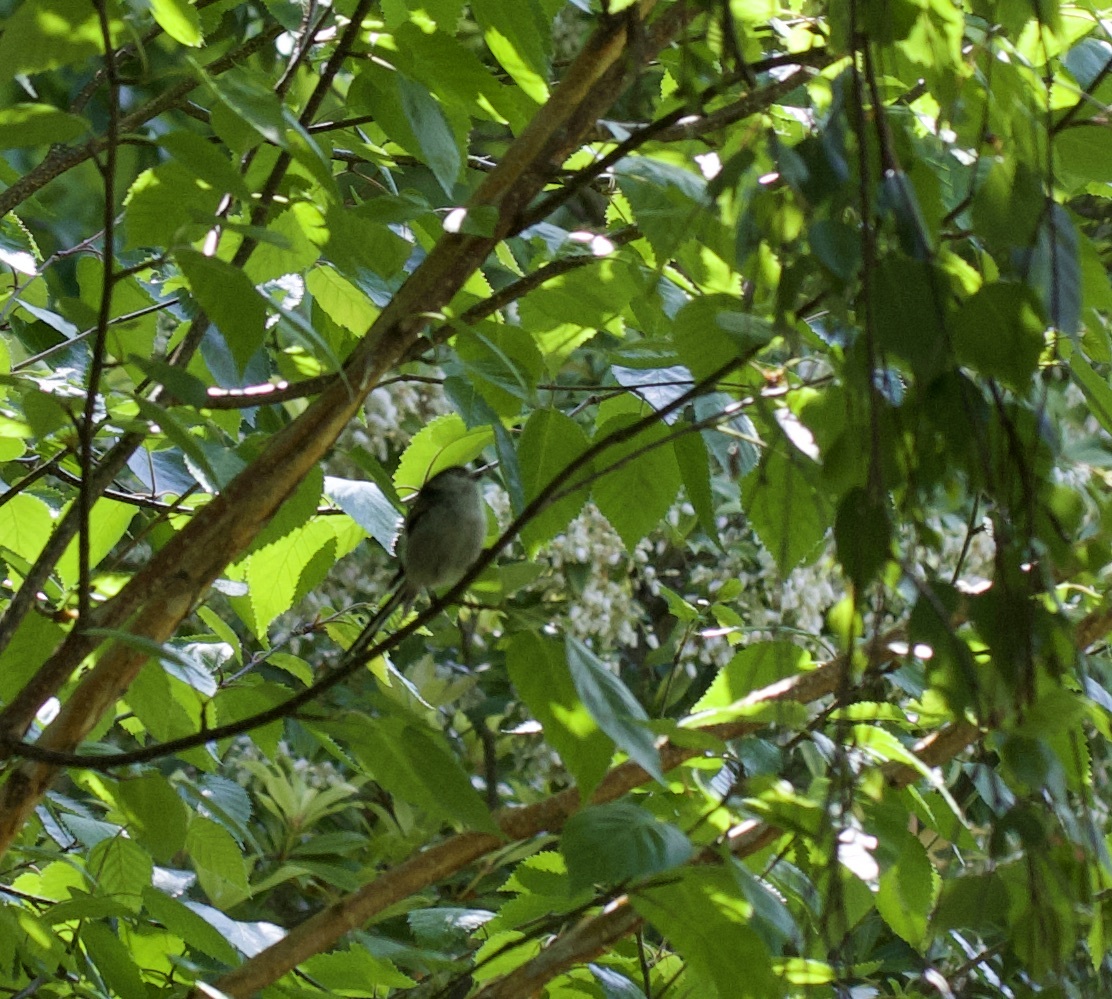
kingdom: Animalia
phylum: Chordata
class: Aves
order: Passeriformes
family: Aegithalidae
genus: Aegithalos
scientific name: Aegithalos caudatus
